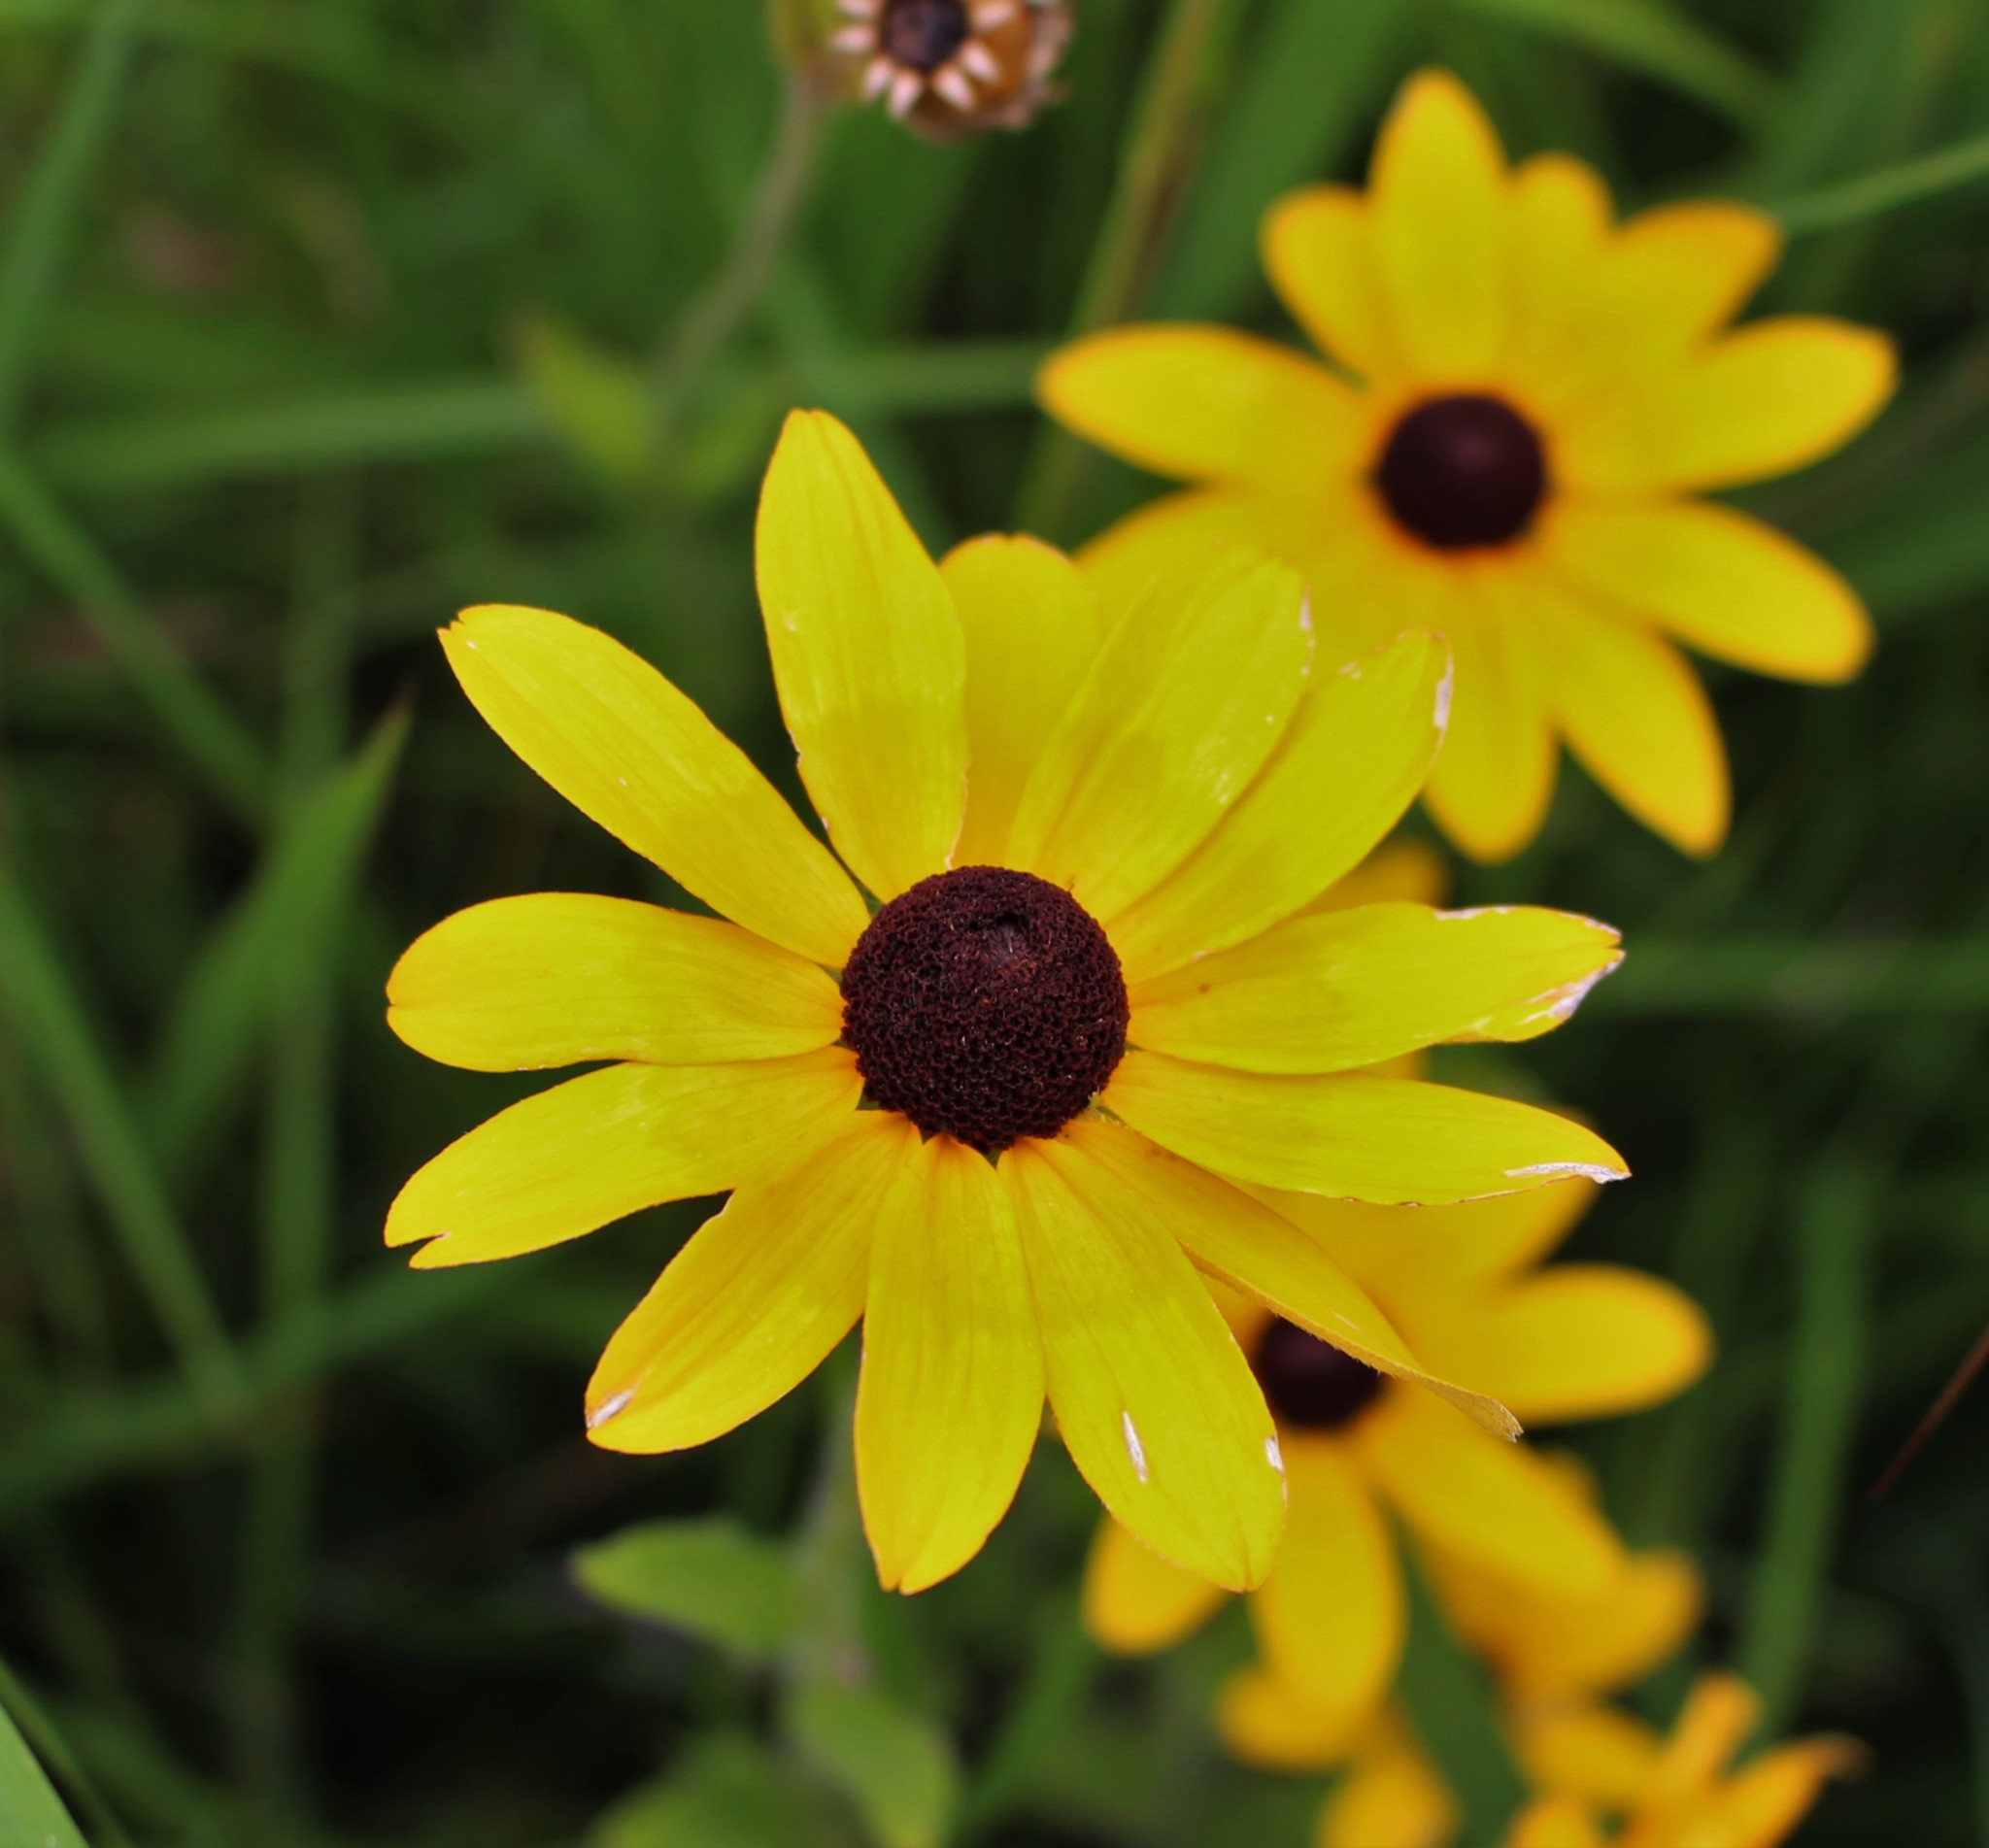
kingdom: Plantae
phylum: Tracheophyta
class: Magnoliopsida
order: Asterales
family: Asteraceae
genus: Rudbeckia
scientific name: Rudbeckia hirta
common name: Black-eyed-susan
